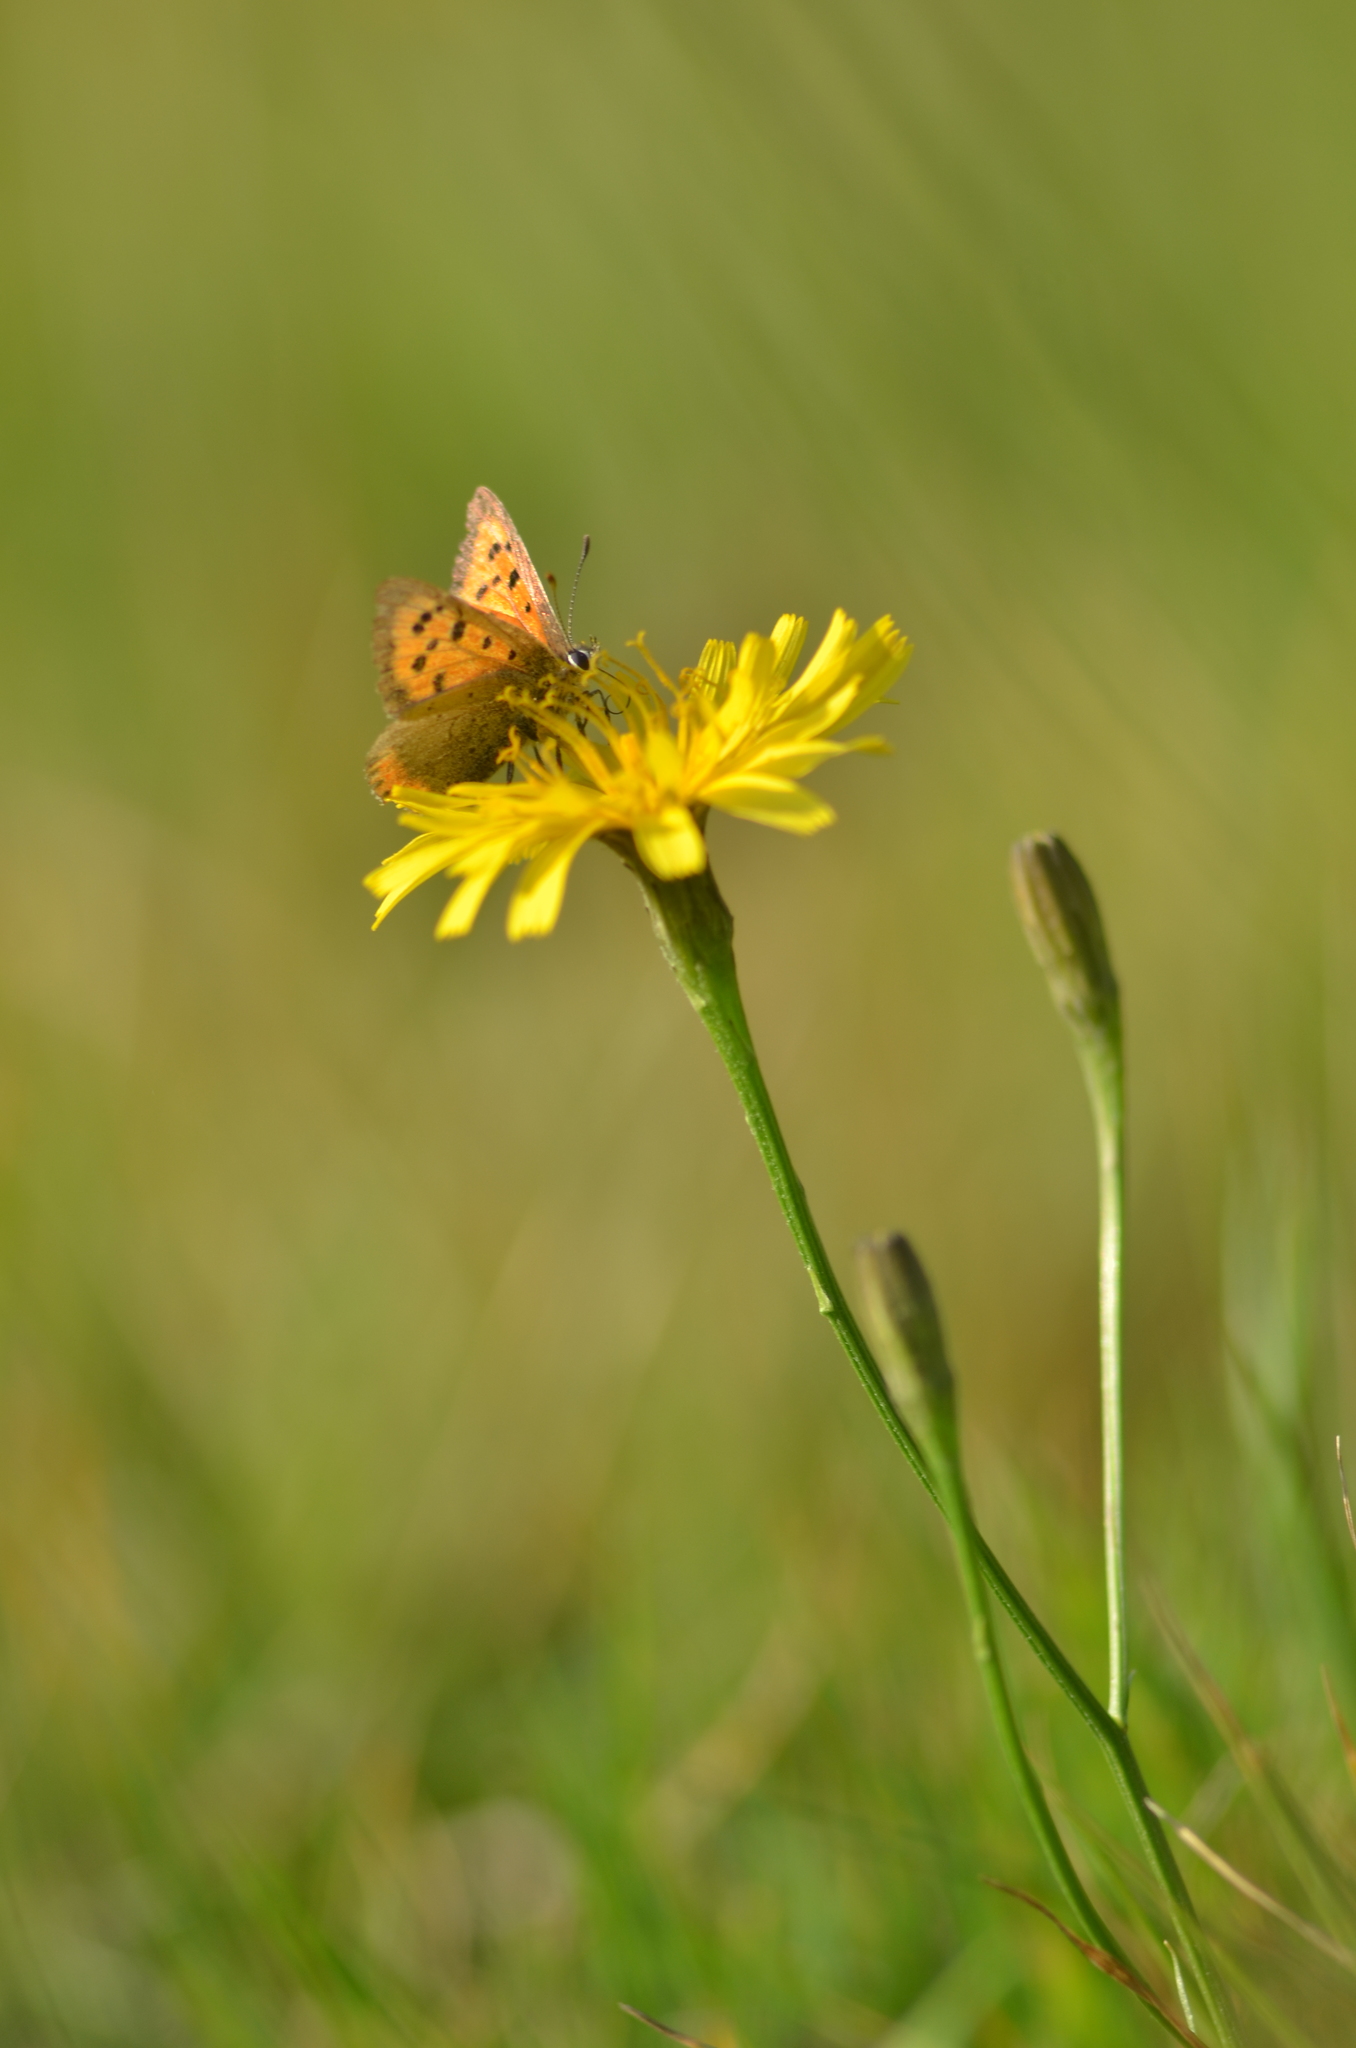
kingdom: Animalia
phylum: Arthropoda
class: Insecta
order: Lepidoptera
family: Lycaenidae
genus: Lycaena
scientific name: Lycaena phlaeas
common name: Small copper
